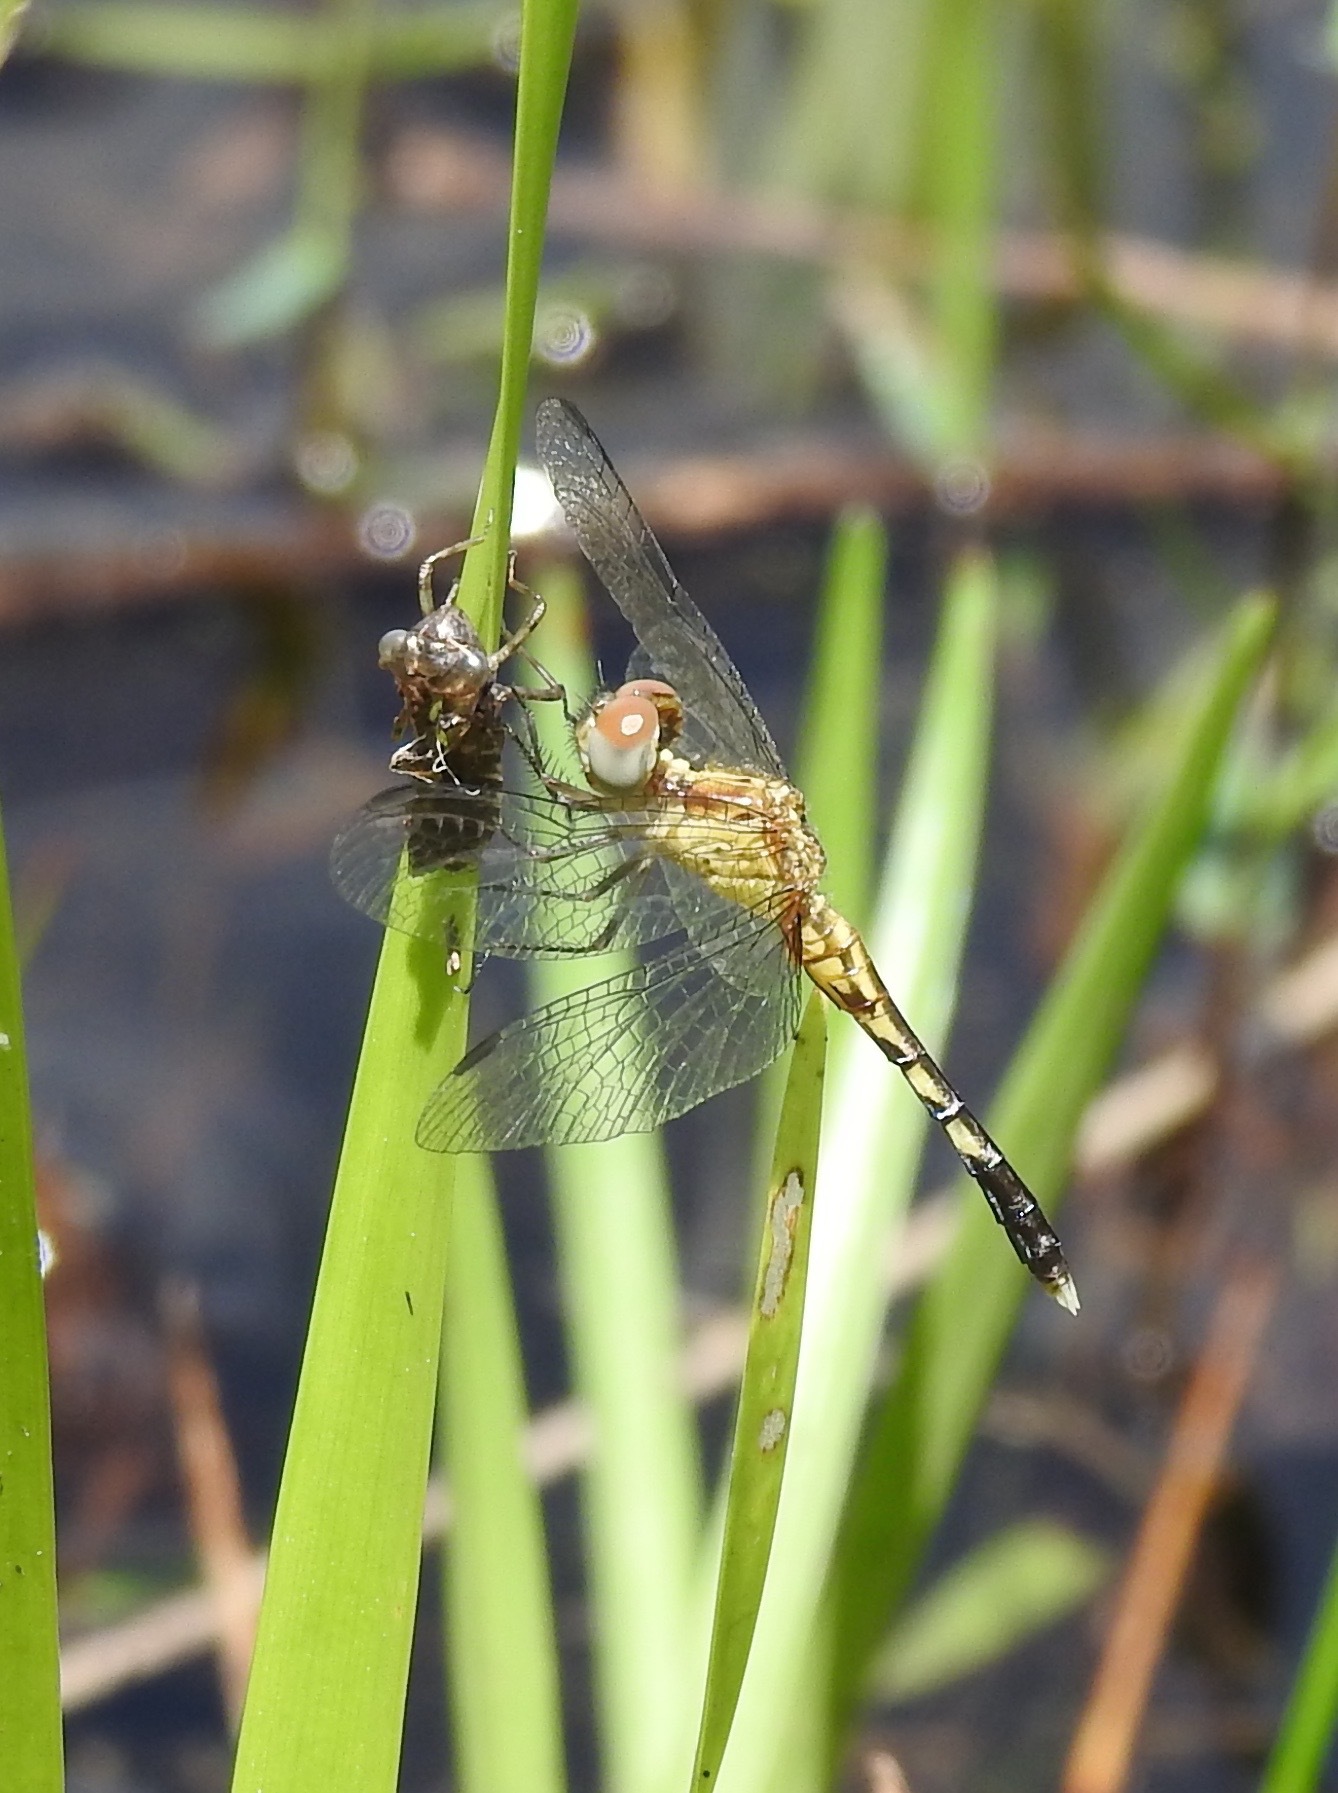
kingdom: Animalia
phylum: Arthropoda
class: Insecta
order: Odonata
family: Libellulidae
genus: Erythrodiplax
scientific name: Erythrodiplax minuscula
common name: Little blue dragonlet
